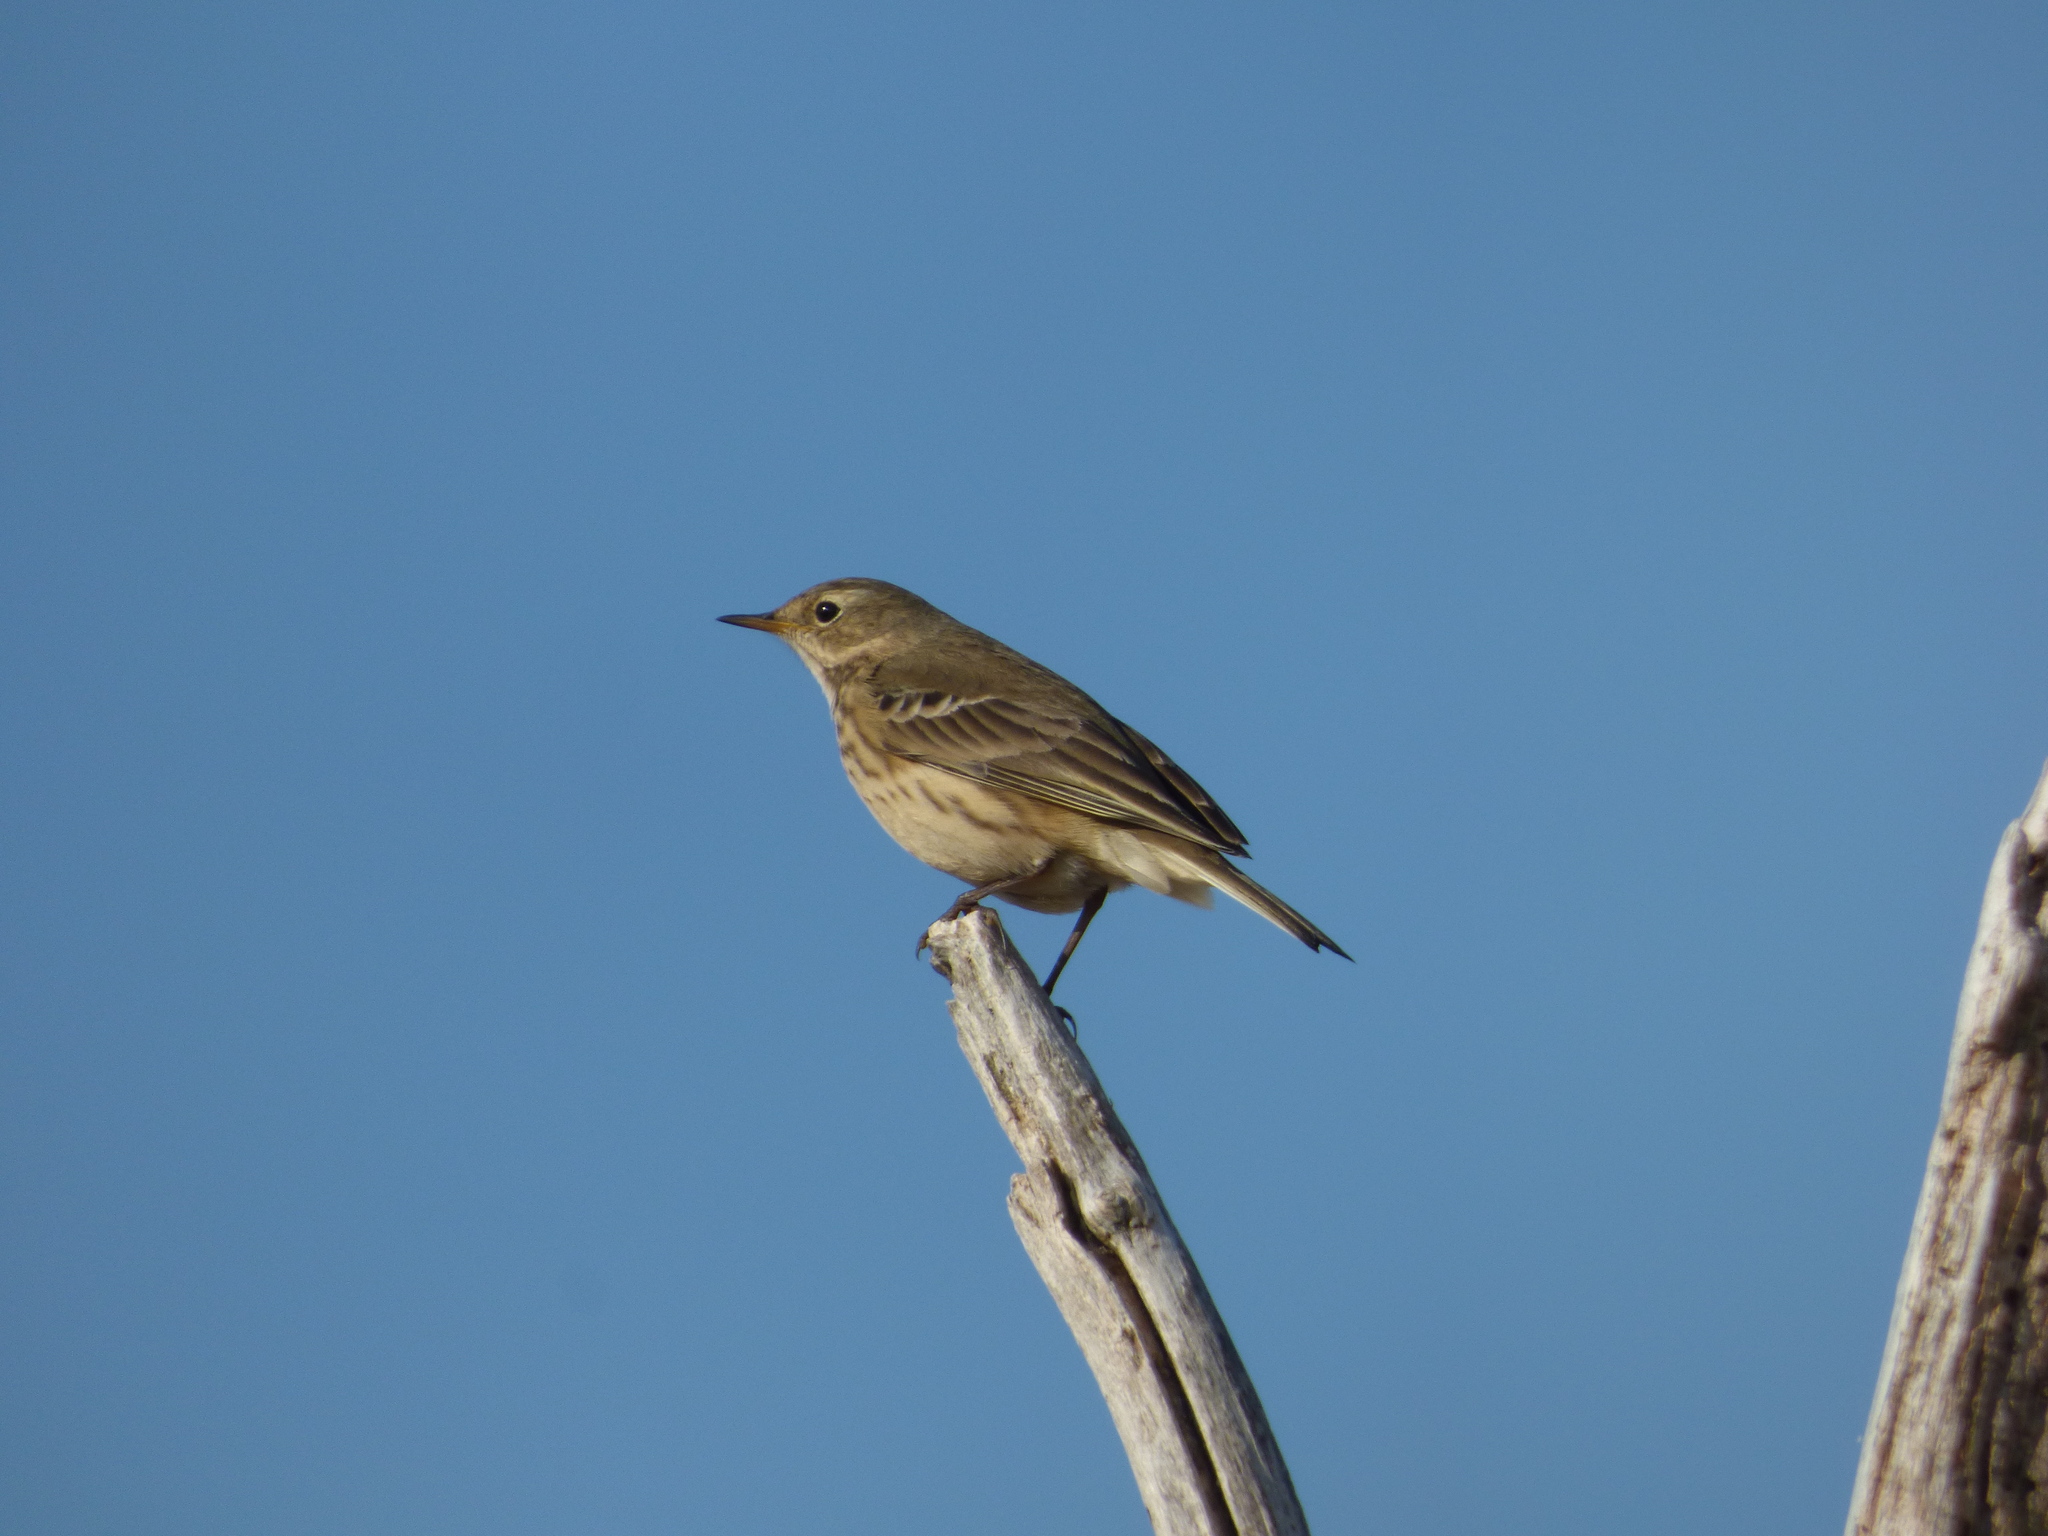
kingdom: Animalia
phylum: Chordata
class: Aves
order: Passeriformes
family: Motacillidae
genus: Anthus
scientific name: Anthus rubescens
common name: Buff-bellied pipit
